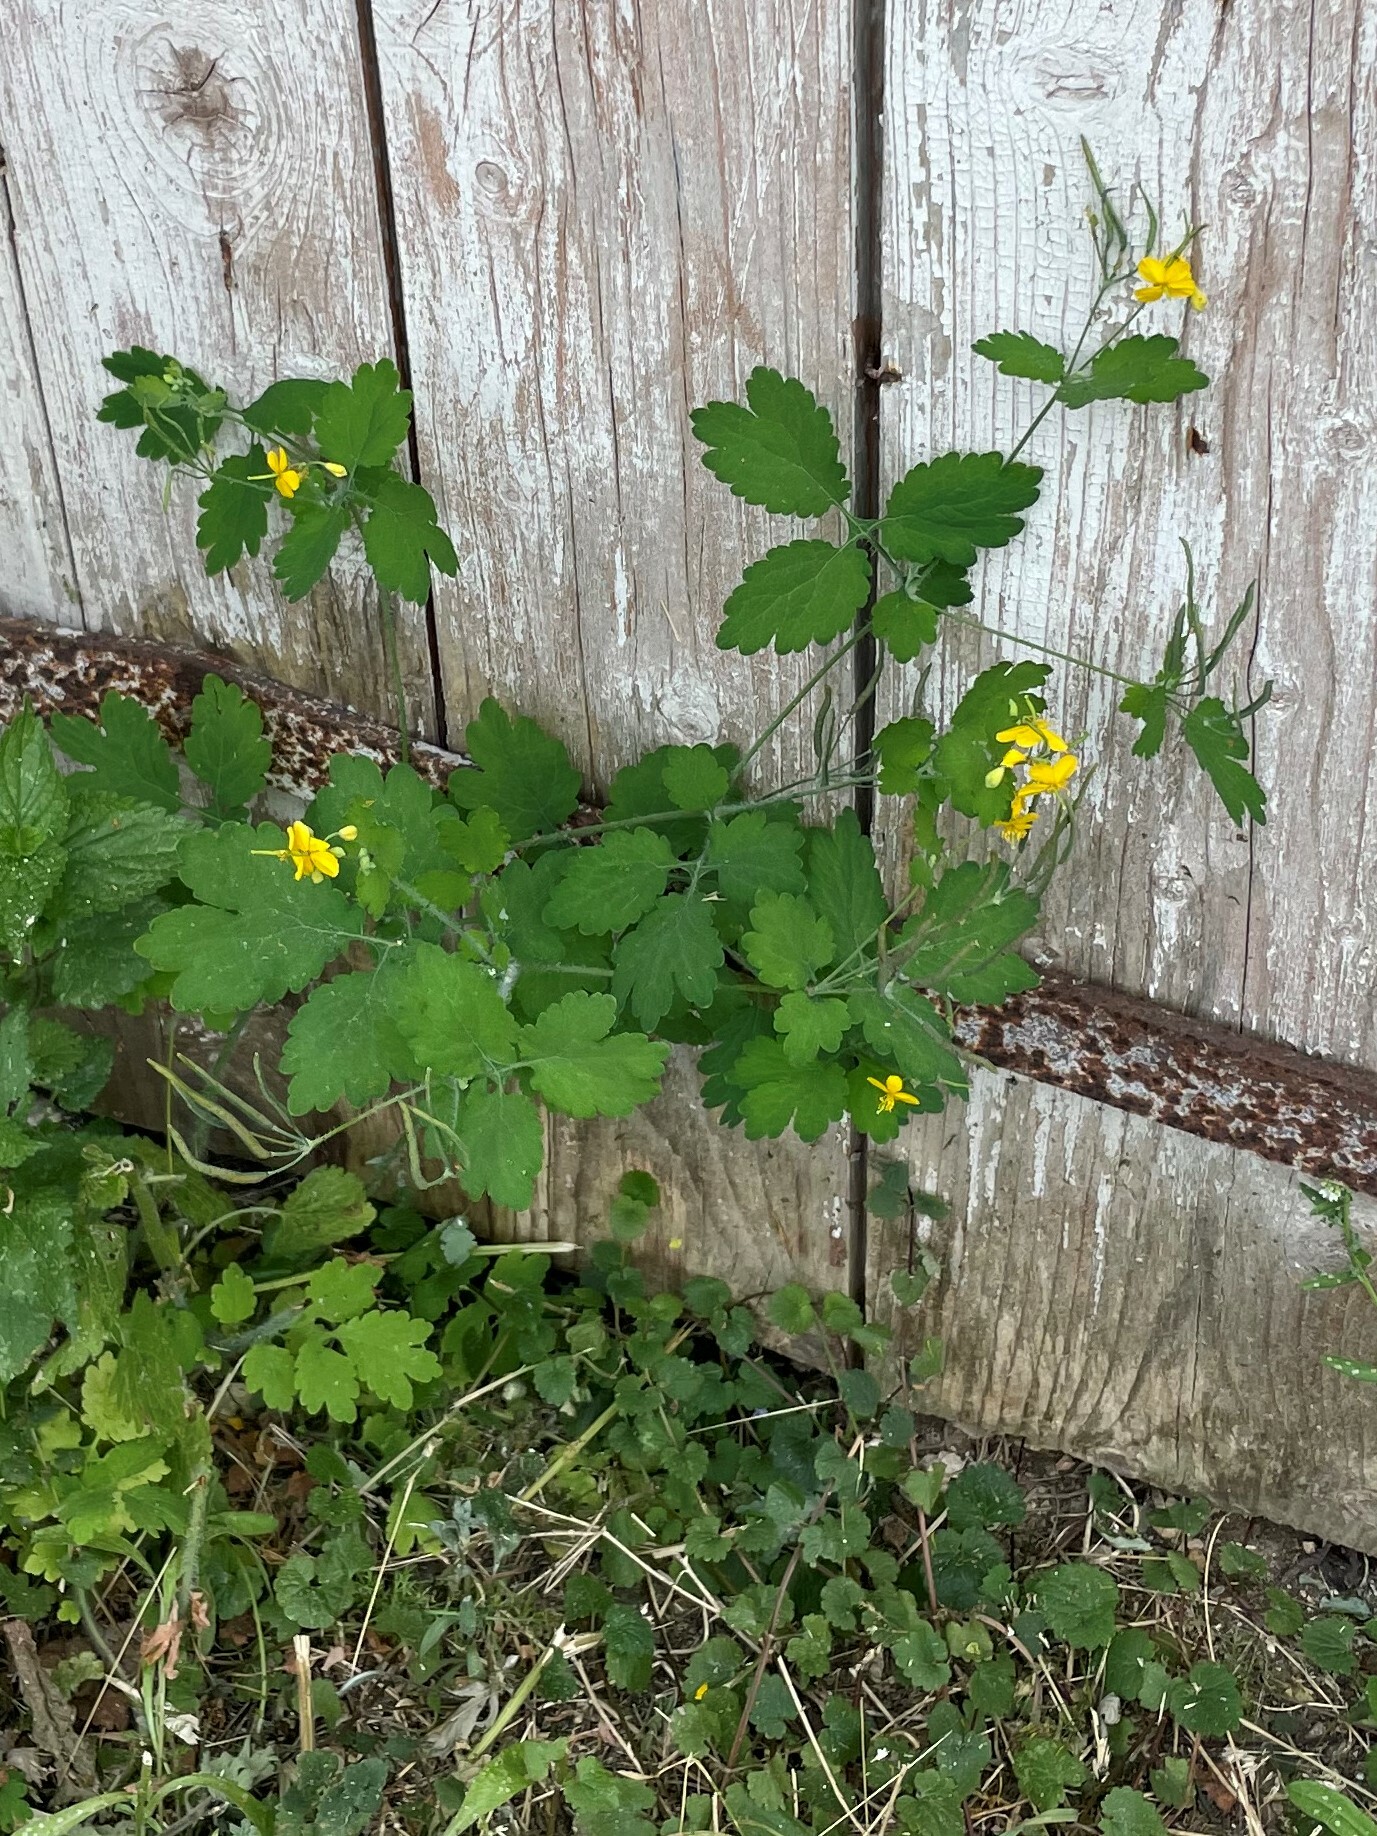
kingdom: Plantae
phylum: Tracheophyta
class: Magnoliopsida
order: Ranunculales
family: Papaveraceae
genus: Chelidonium
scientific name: Chelidonium majus
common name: Greater celandine
